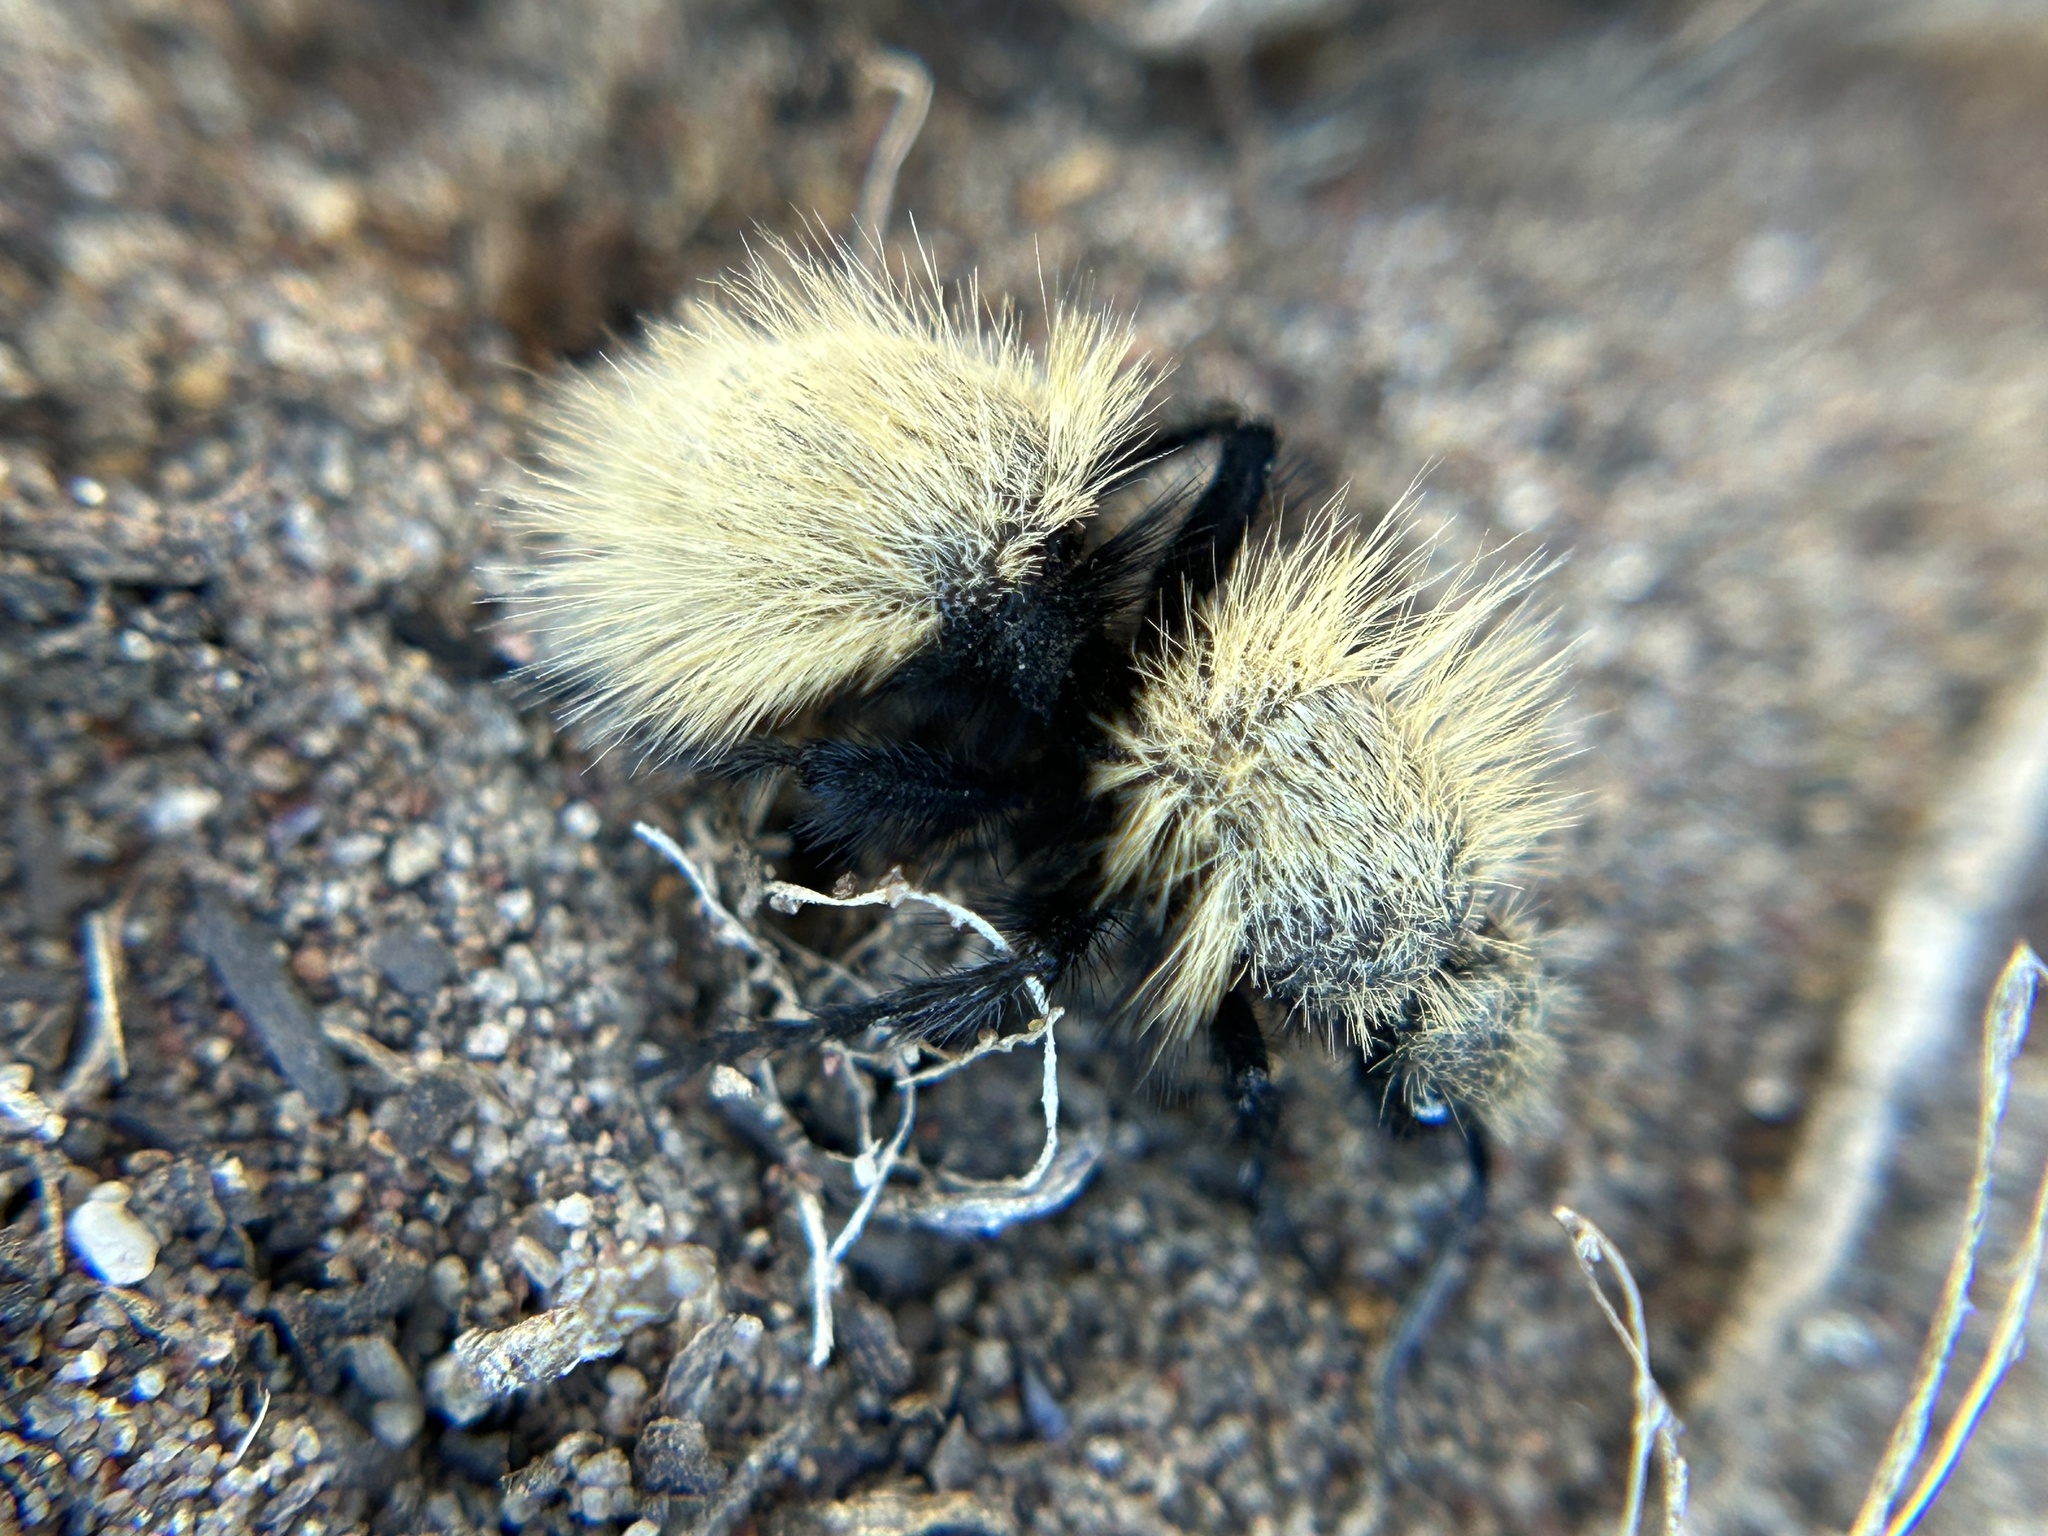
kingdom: Animalia
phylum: Arthropoda
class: Insecta
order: Hymenoptera
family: Mutillidae
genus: Dasymutilla
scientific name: Dasymutilla
